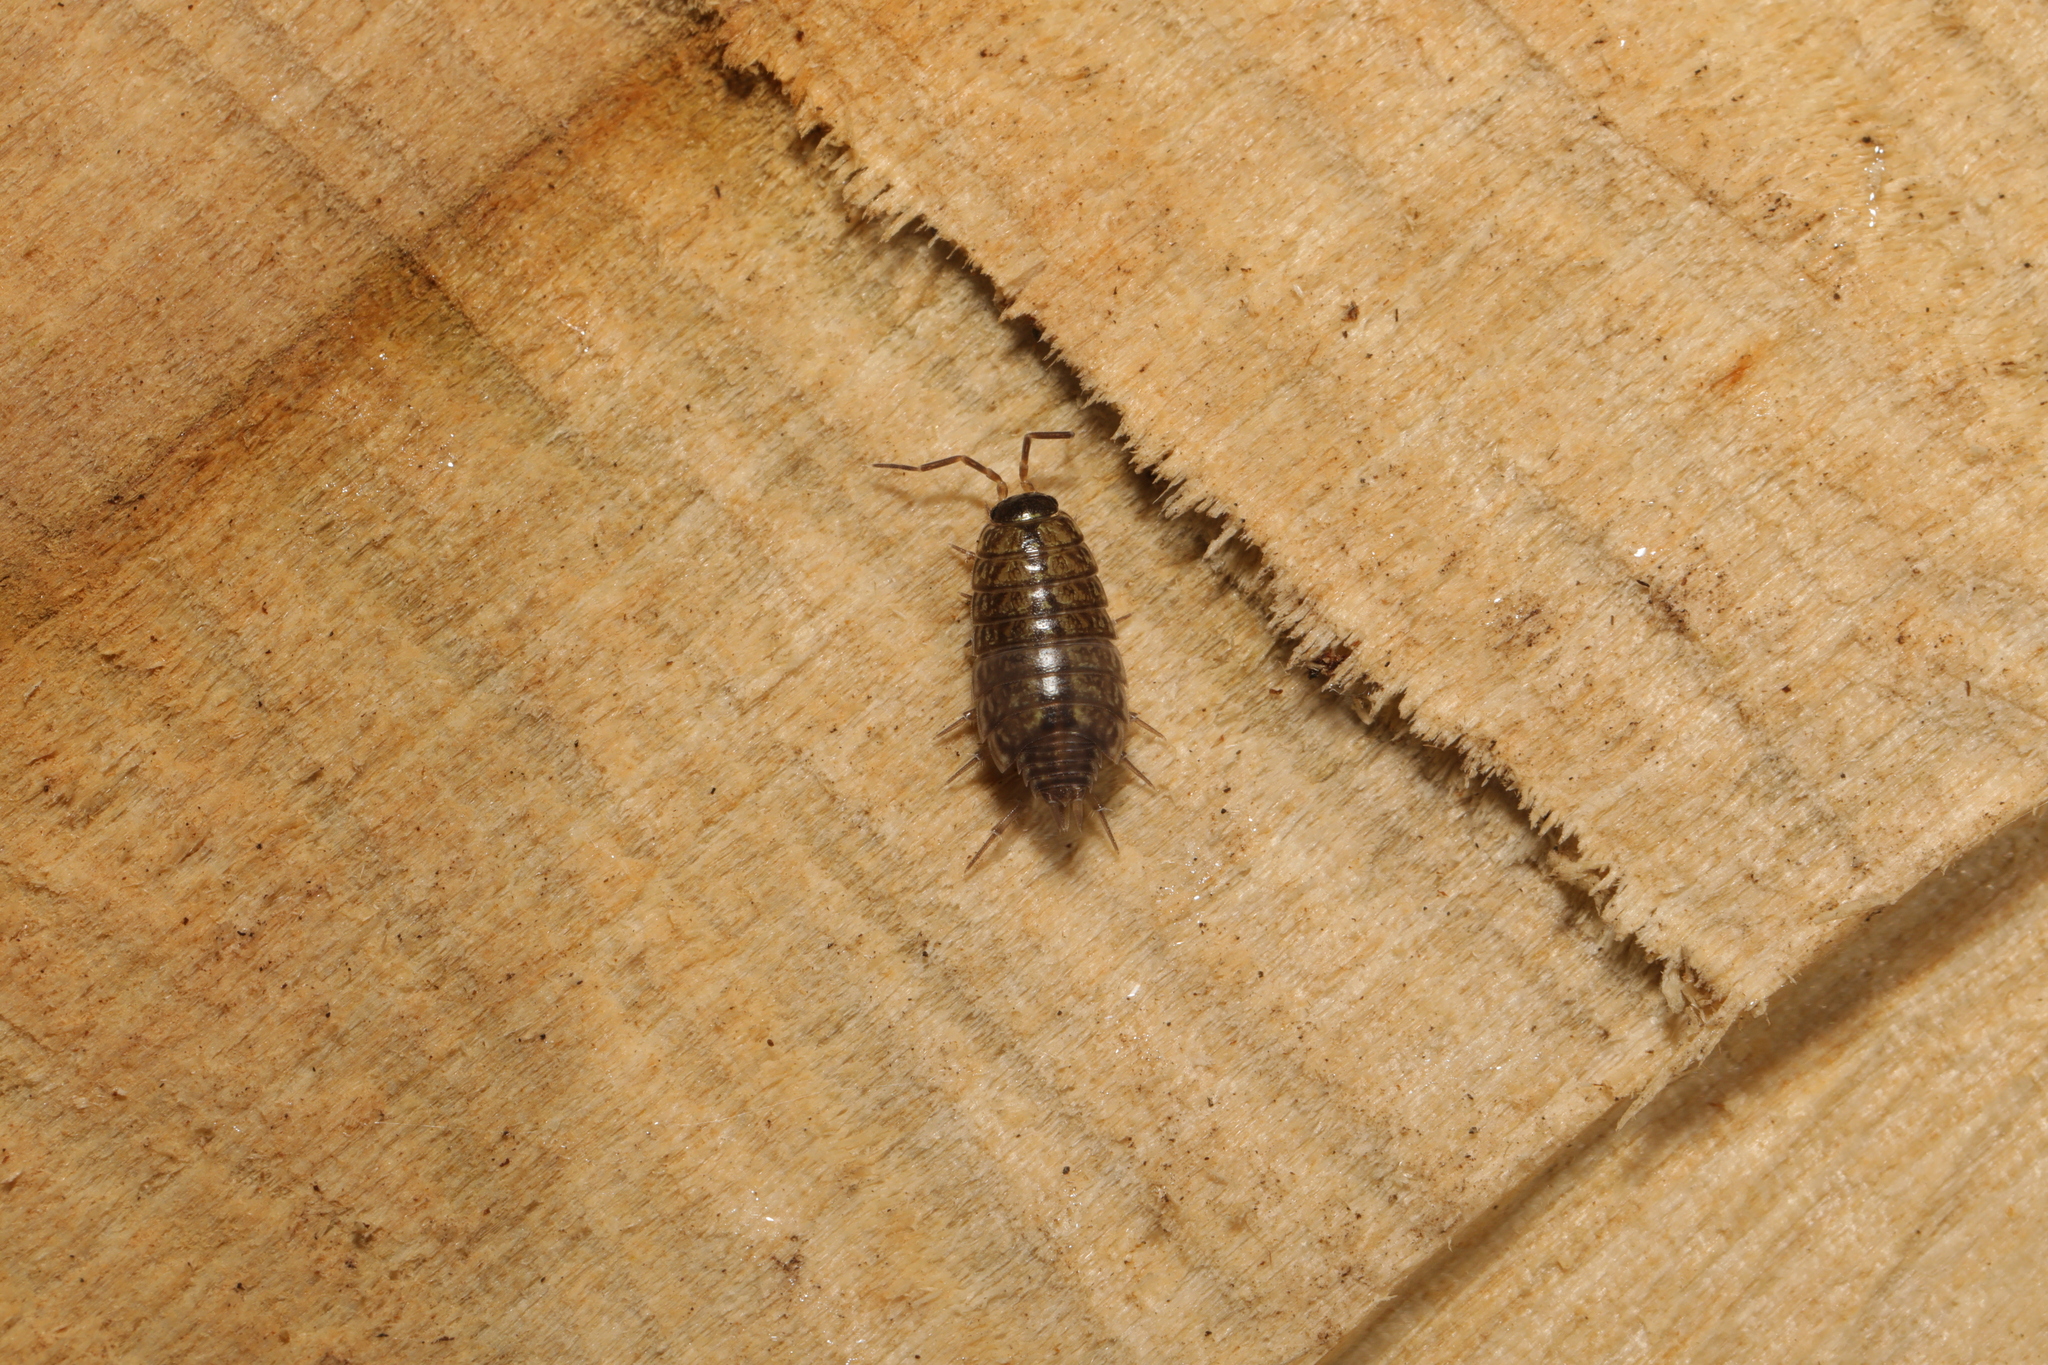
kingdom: Animalia
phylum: Arthropoda
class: Malacostraca
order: Isopoda
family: Philosciidae
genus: Philoscia
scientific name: Philoscia muscorum
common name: Common striped woodlouse
